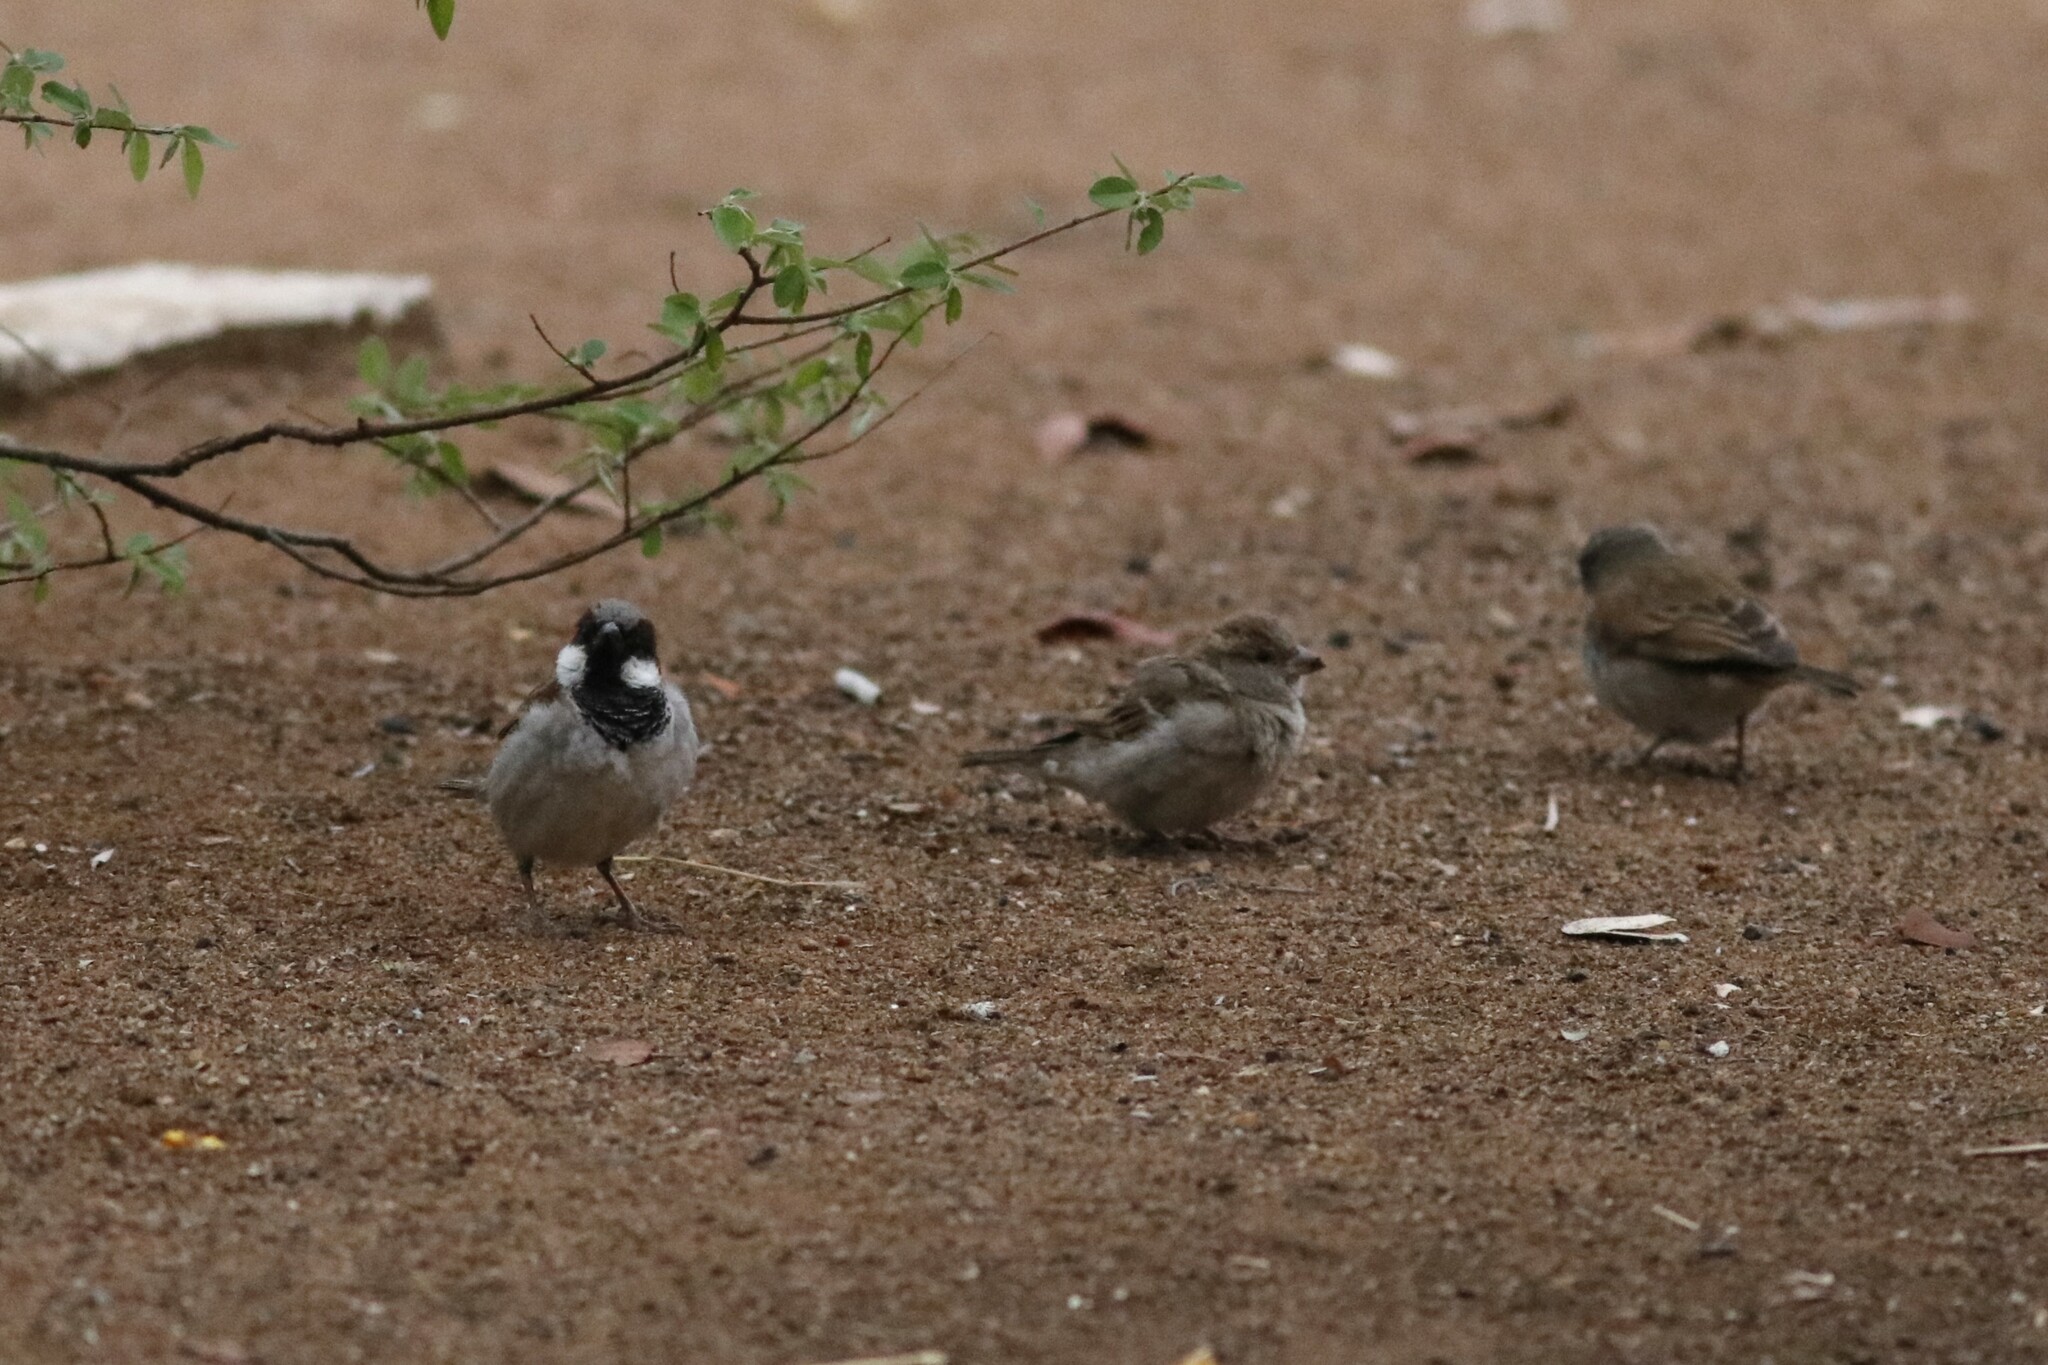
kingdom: Animalia
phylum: Chordata
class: Aves
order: Passeriformes
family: Passeridae
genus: Passer
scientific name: Passer domesticus
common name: House sparrow
